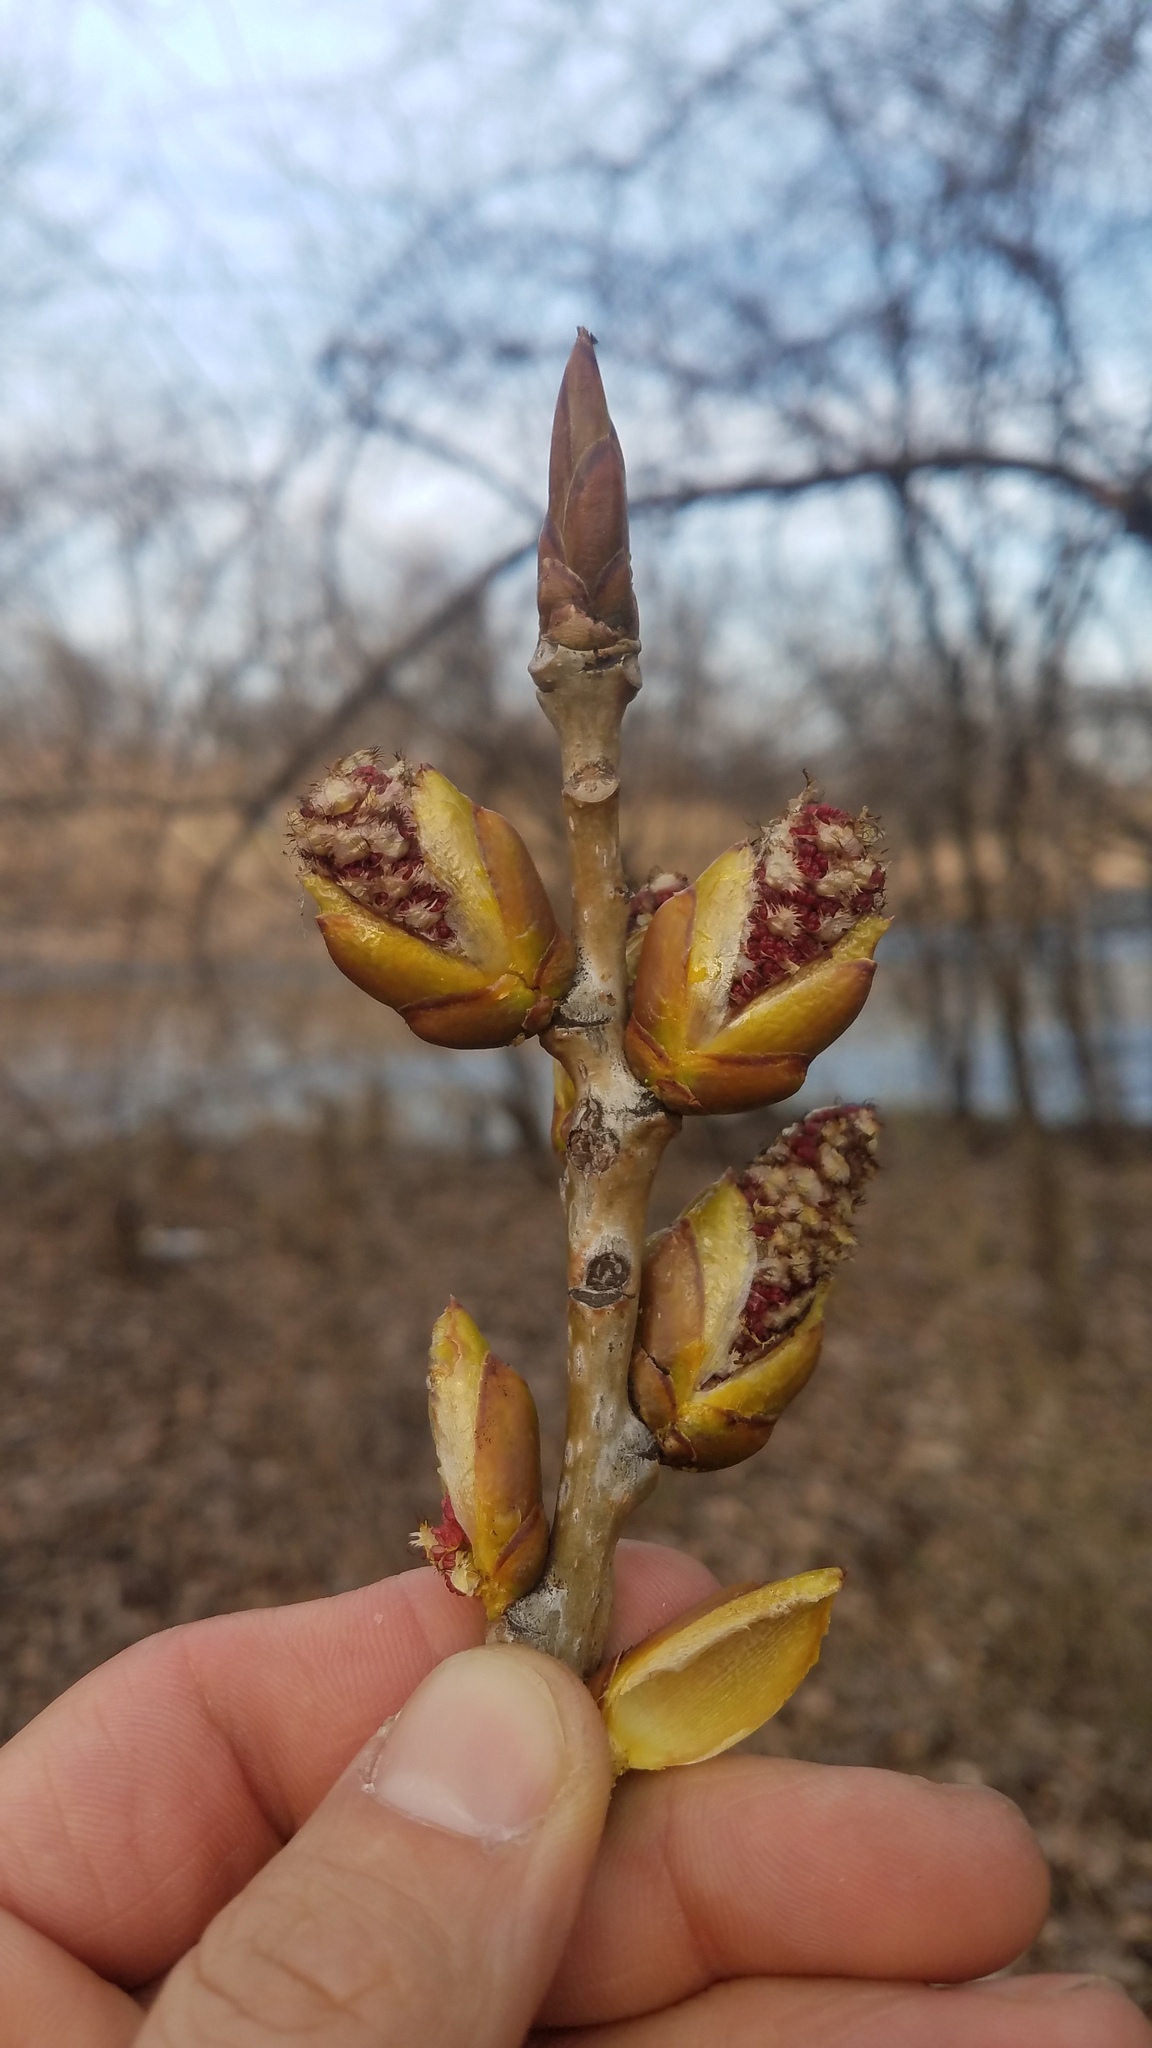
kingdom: Plantae
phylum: Tracheophyta
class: Magnoliopsida
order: Malpighiales
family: Salicaceae
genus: Populus
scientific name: Populus deltoides
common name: Eastern cottonwood
